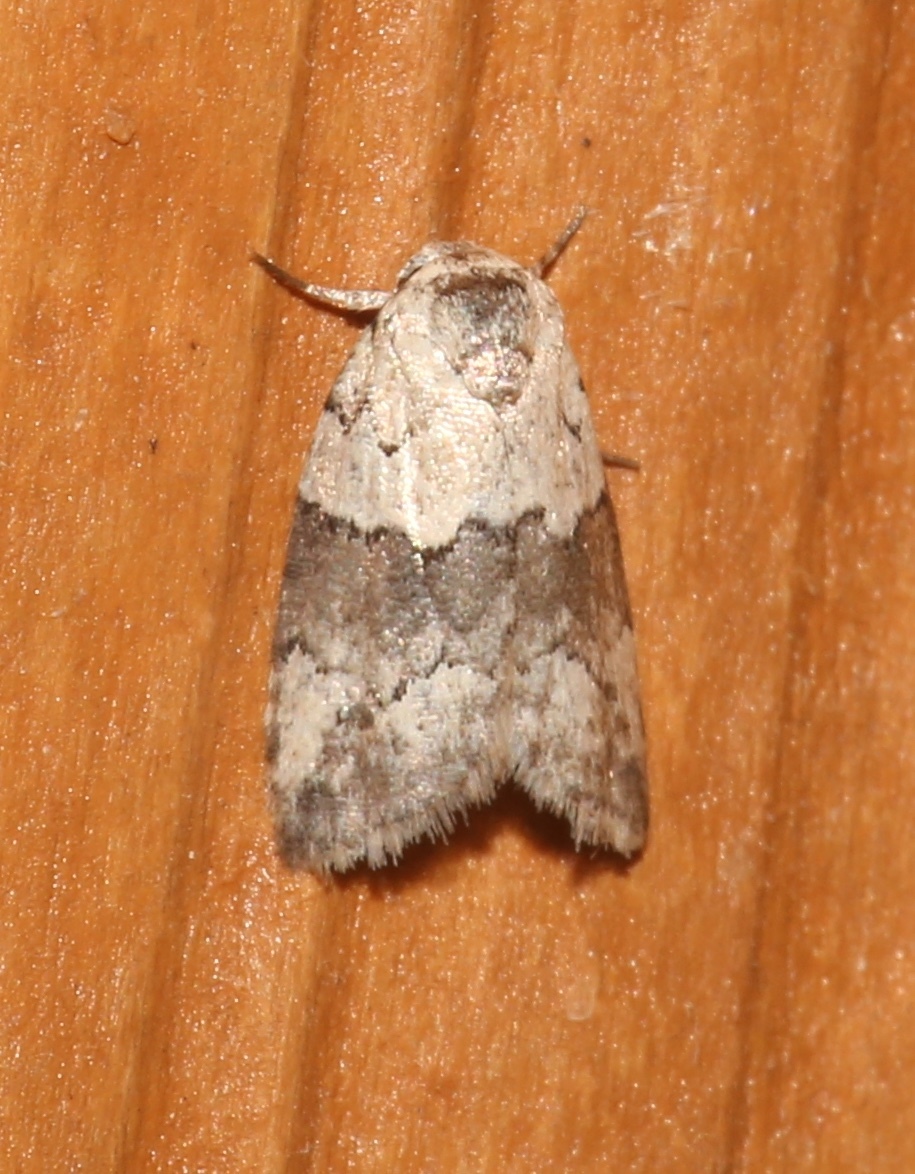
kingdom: Animalia
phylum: Arthropoda
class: Insecta
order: Lepidoptera
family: Nolidae
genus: Afrida
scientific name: Afrida ydatodes
